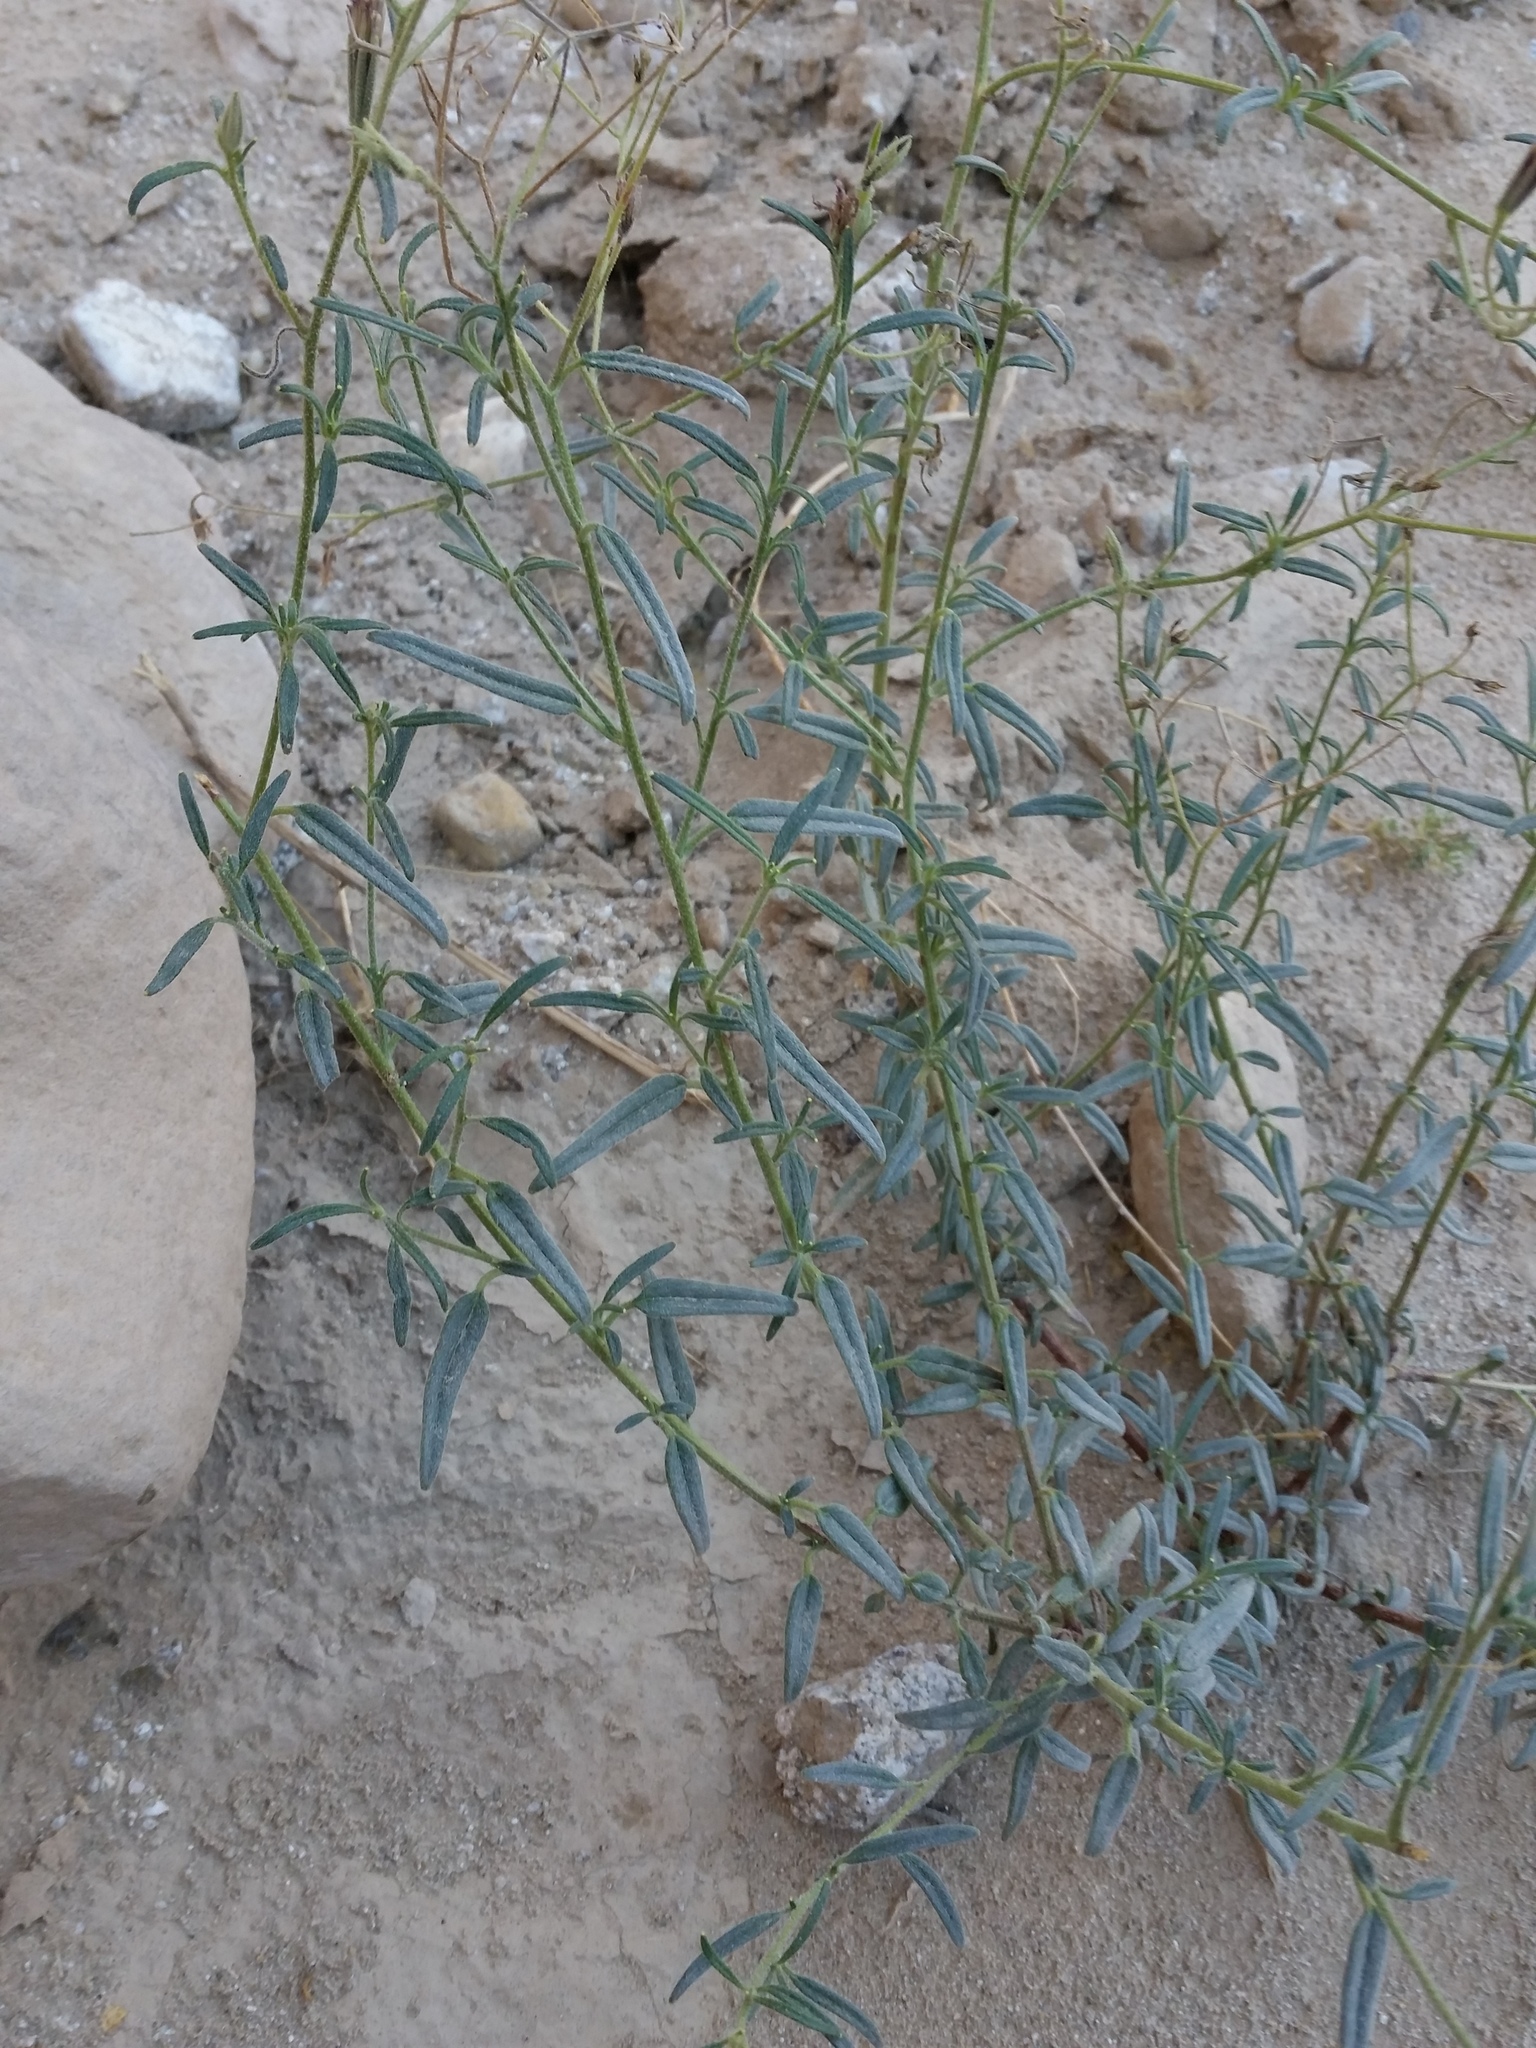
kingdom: Plantae
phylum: Tracheophyta
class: Magnoliopsida
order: Asterales
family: Asteraceae
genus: Palafoxia
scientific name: Palafoxia arida
